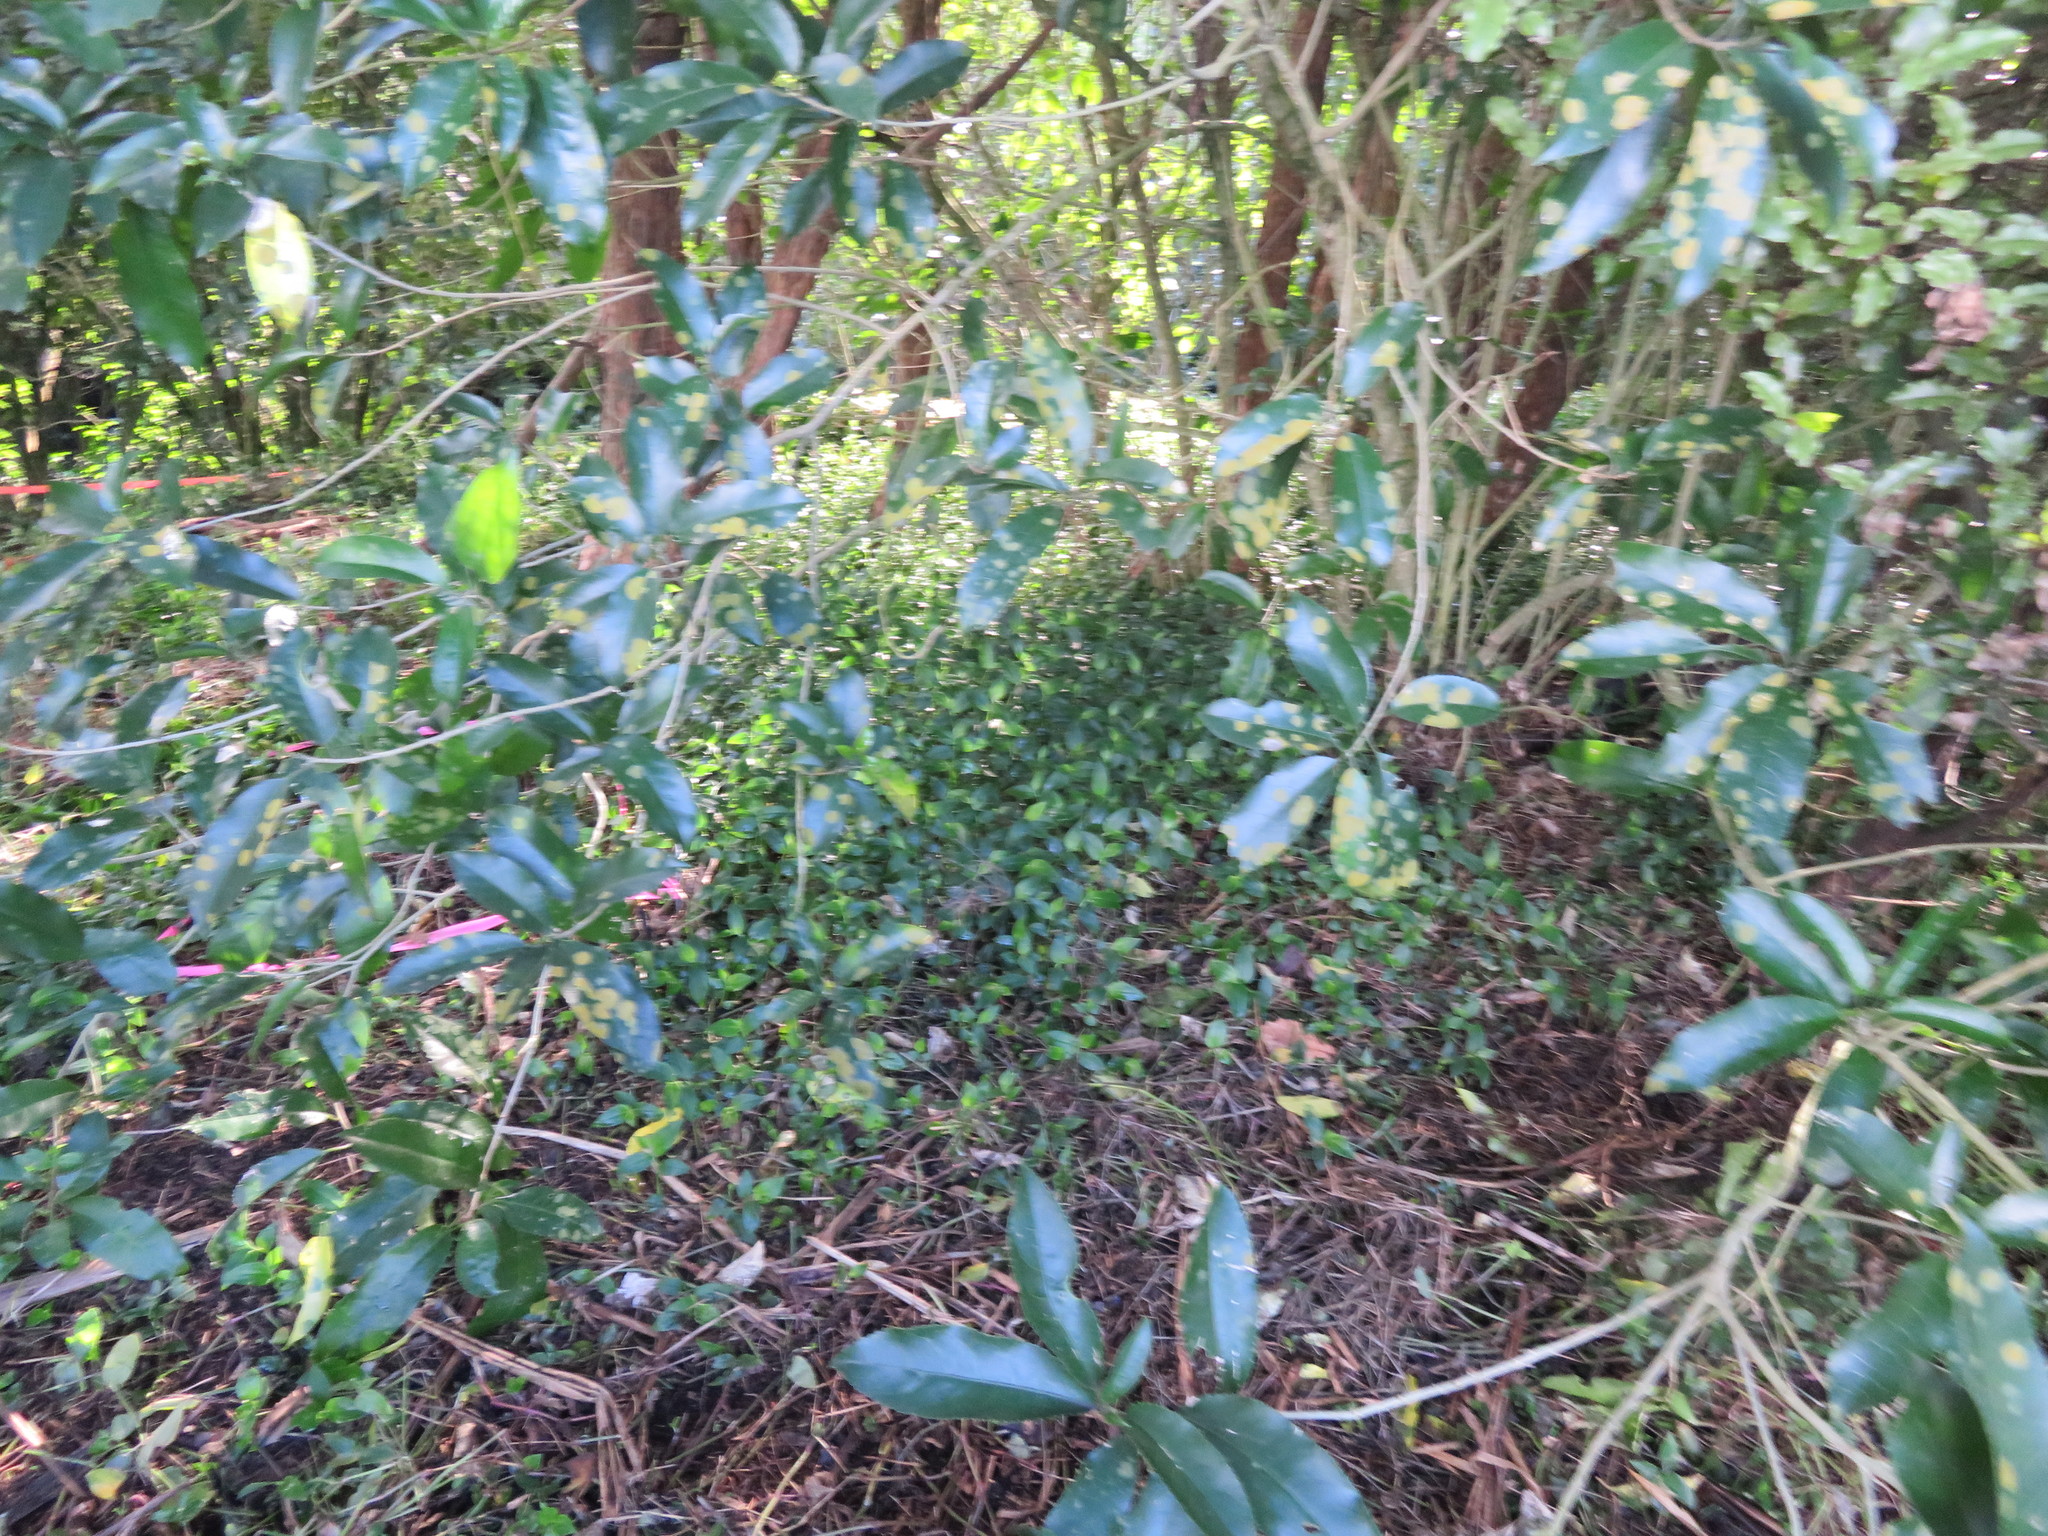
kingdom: Plantae
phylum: Tracheophyta
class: Liliopsida
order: Commelinales
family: Commelinaceae
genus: Tradescantia
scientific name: Tradescantia fluminensis
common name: Wandering-jew
